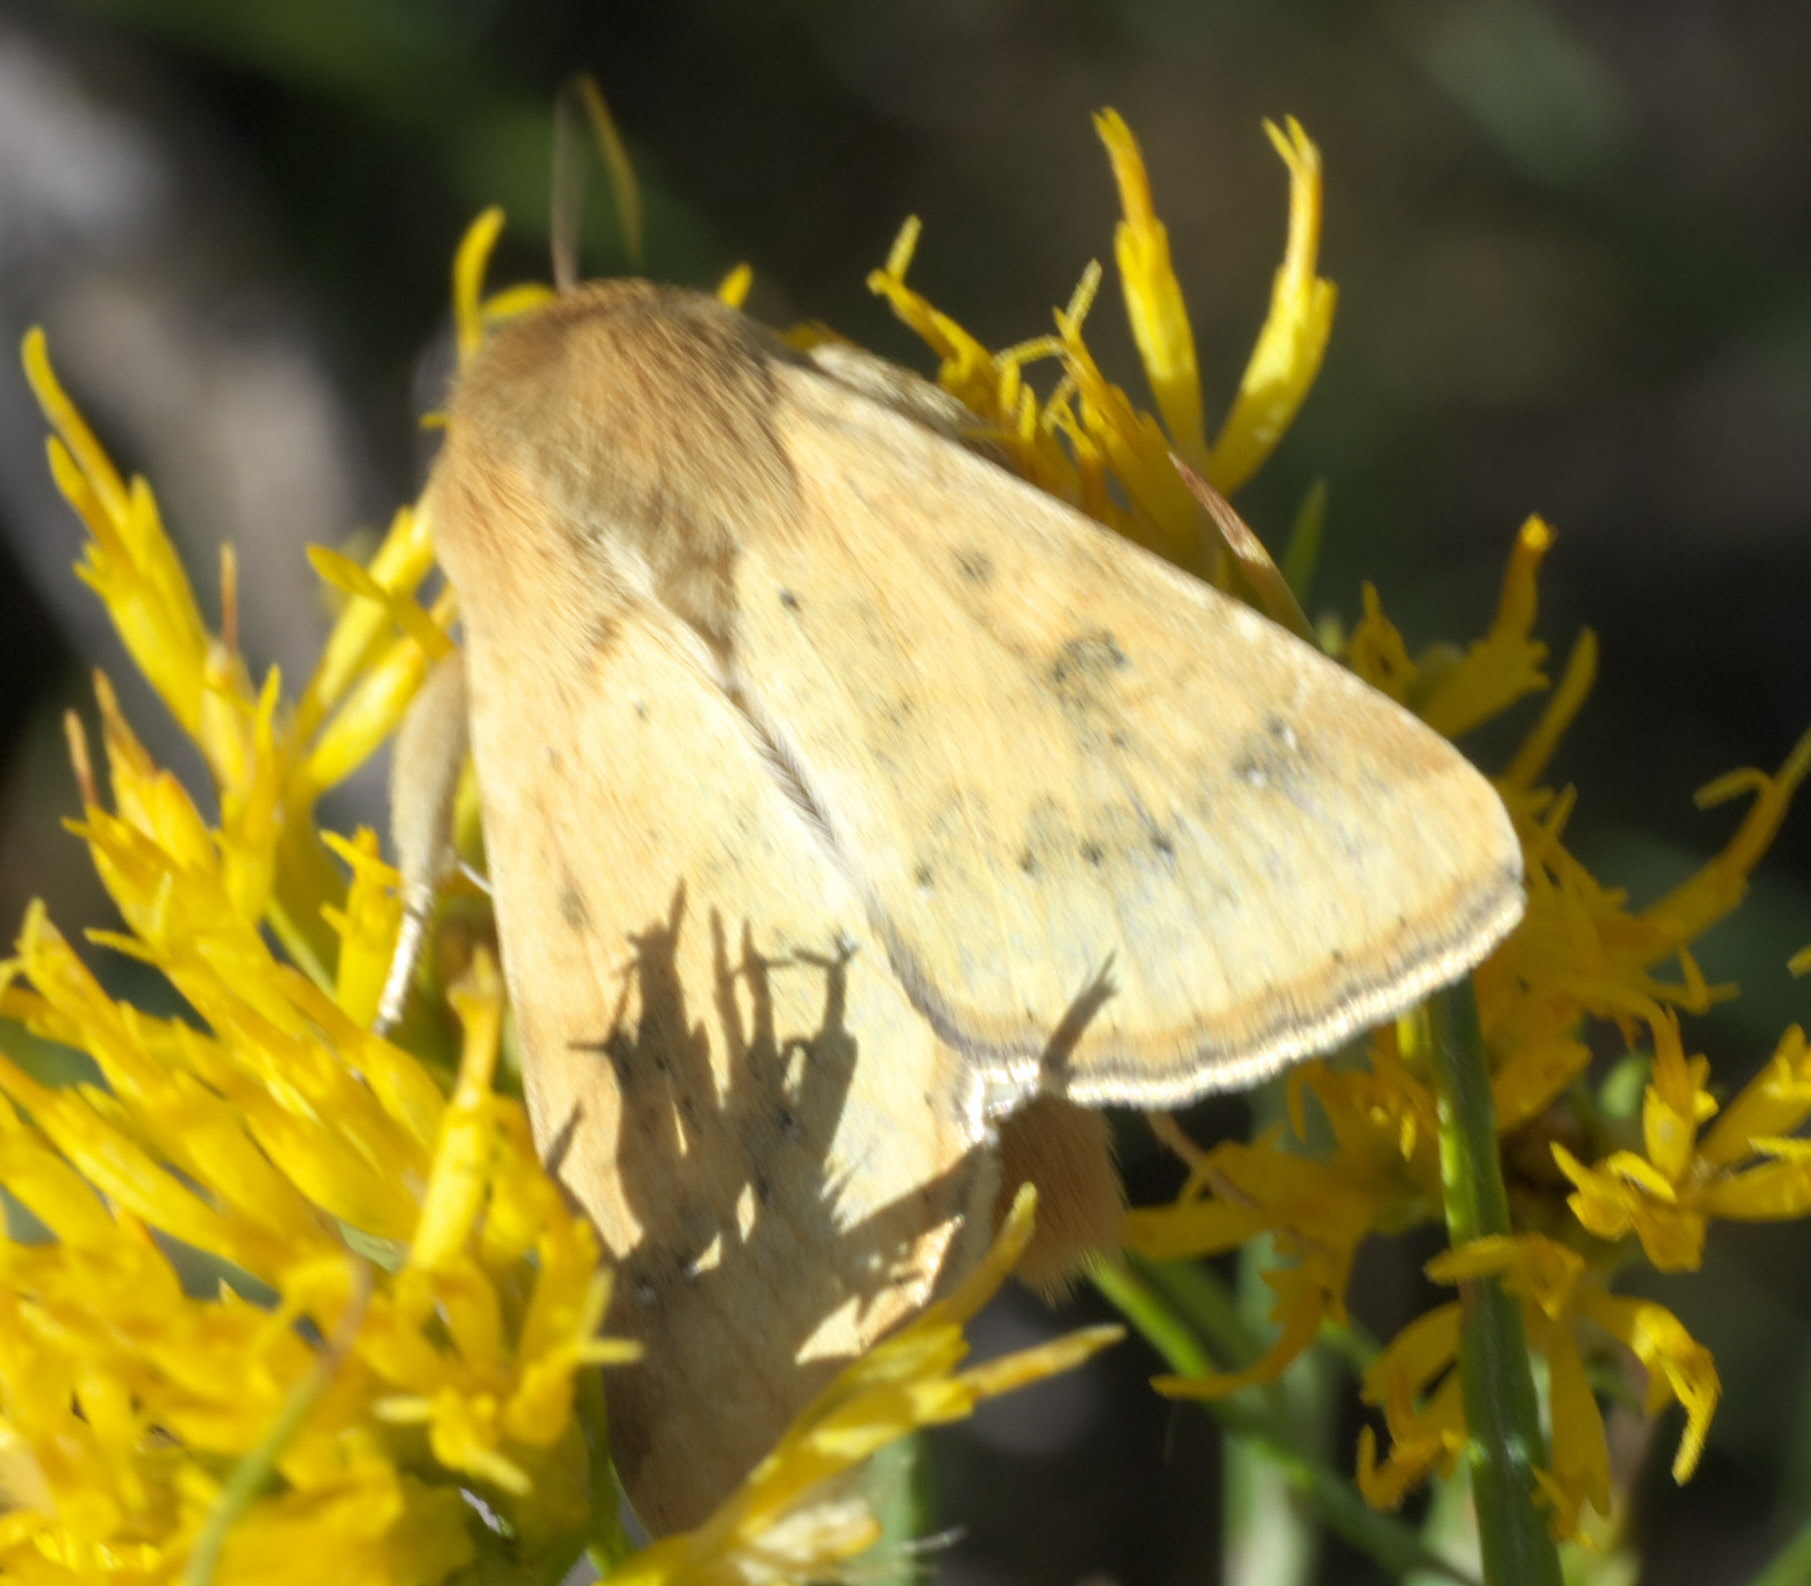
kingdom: Animalia
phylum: Arthropoda
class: Insecta
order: Lepidoptera
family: Noctuidae
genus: Helicoverpa
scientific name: Helicoverpa zea
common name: Bollworm
